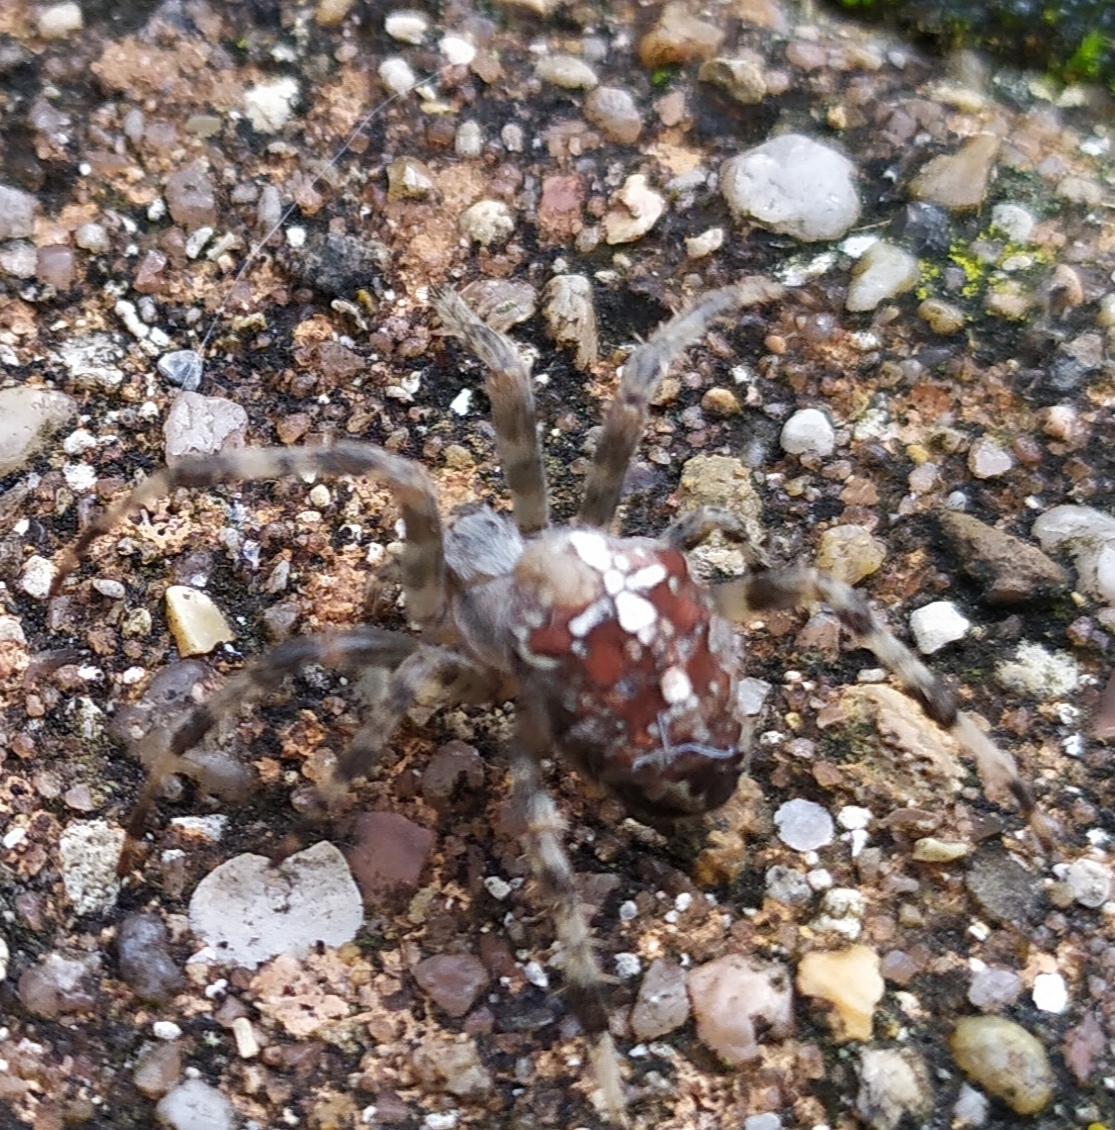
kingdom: Animalia
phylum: Arthropoda
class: Arachnida
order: Araneae
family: Araneidae
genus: Araneus
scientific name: Araneus diadematus
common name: Cross orbweaver
